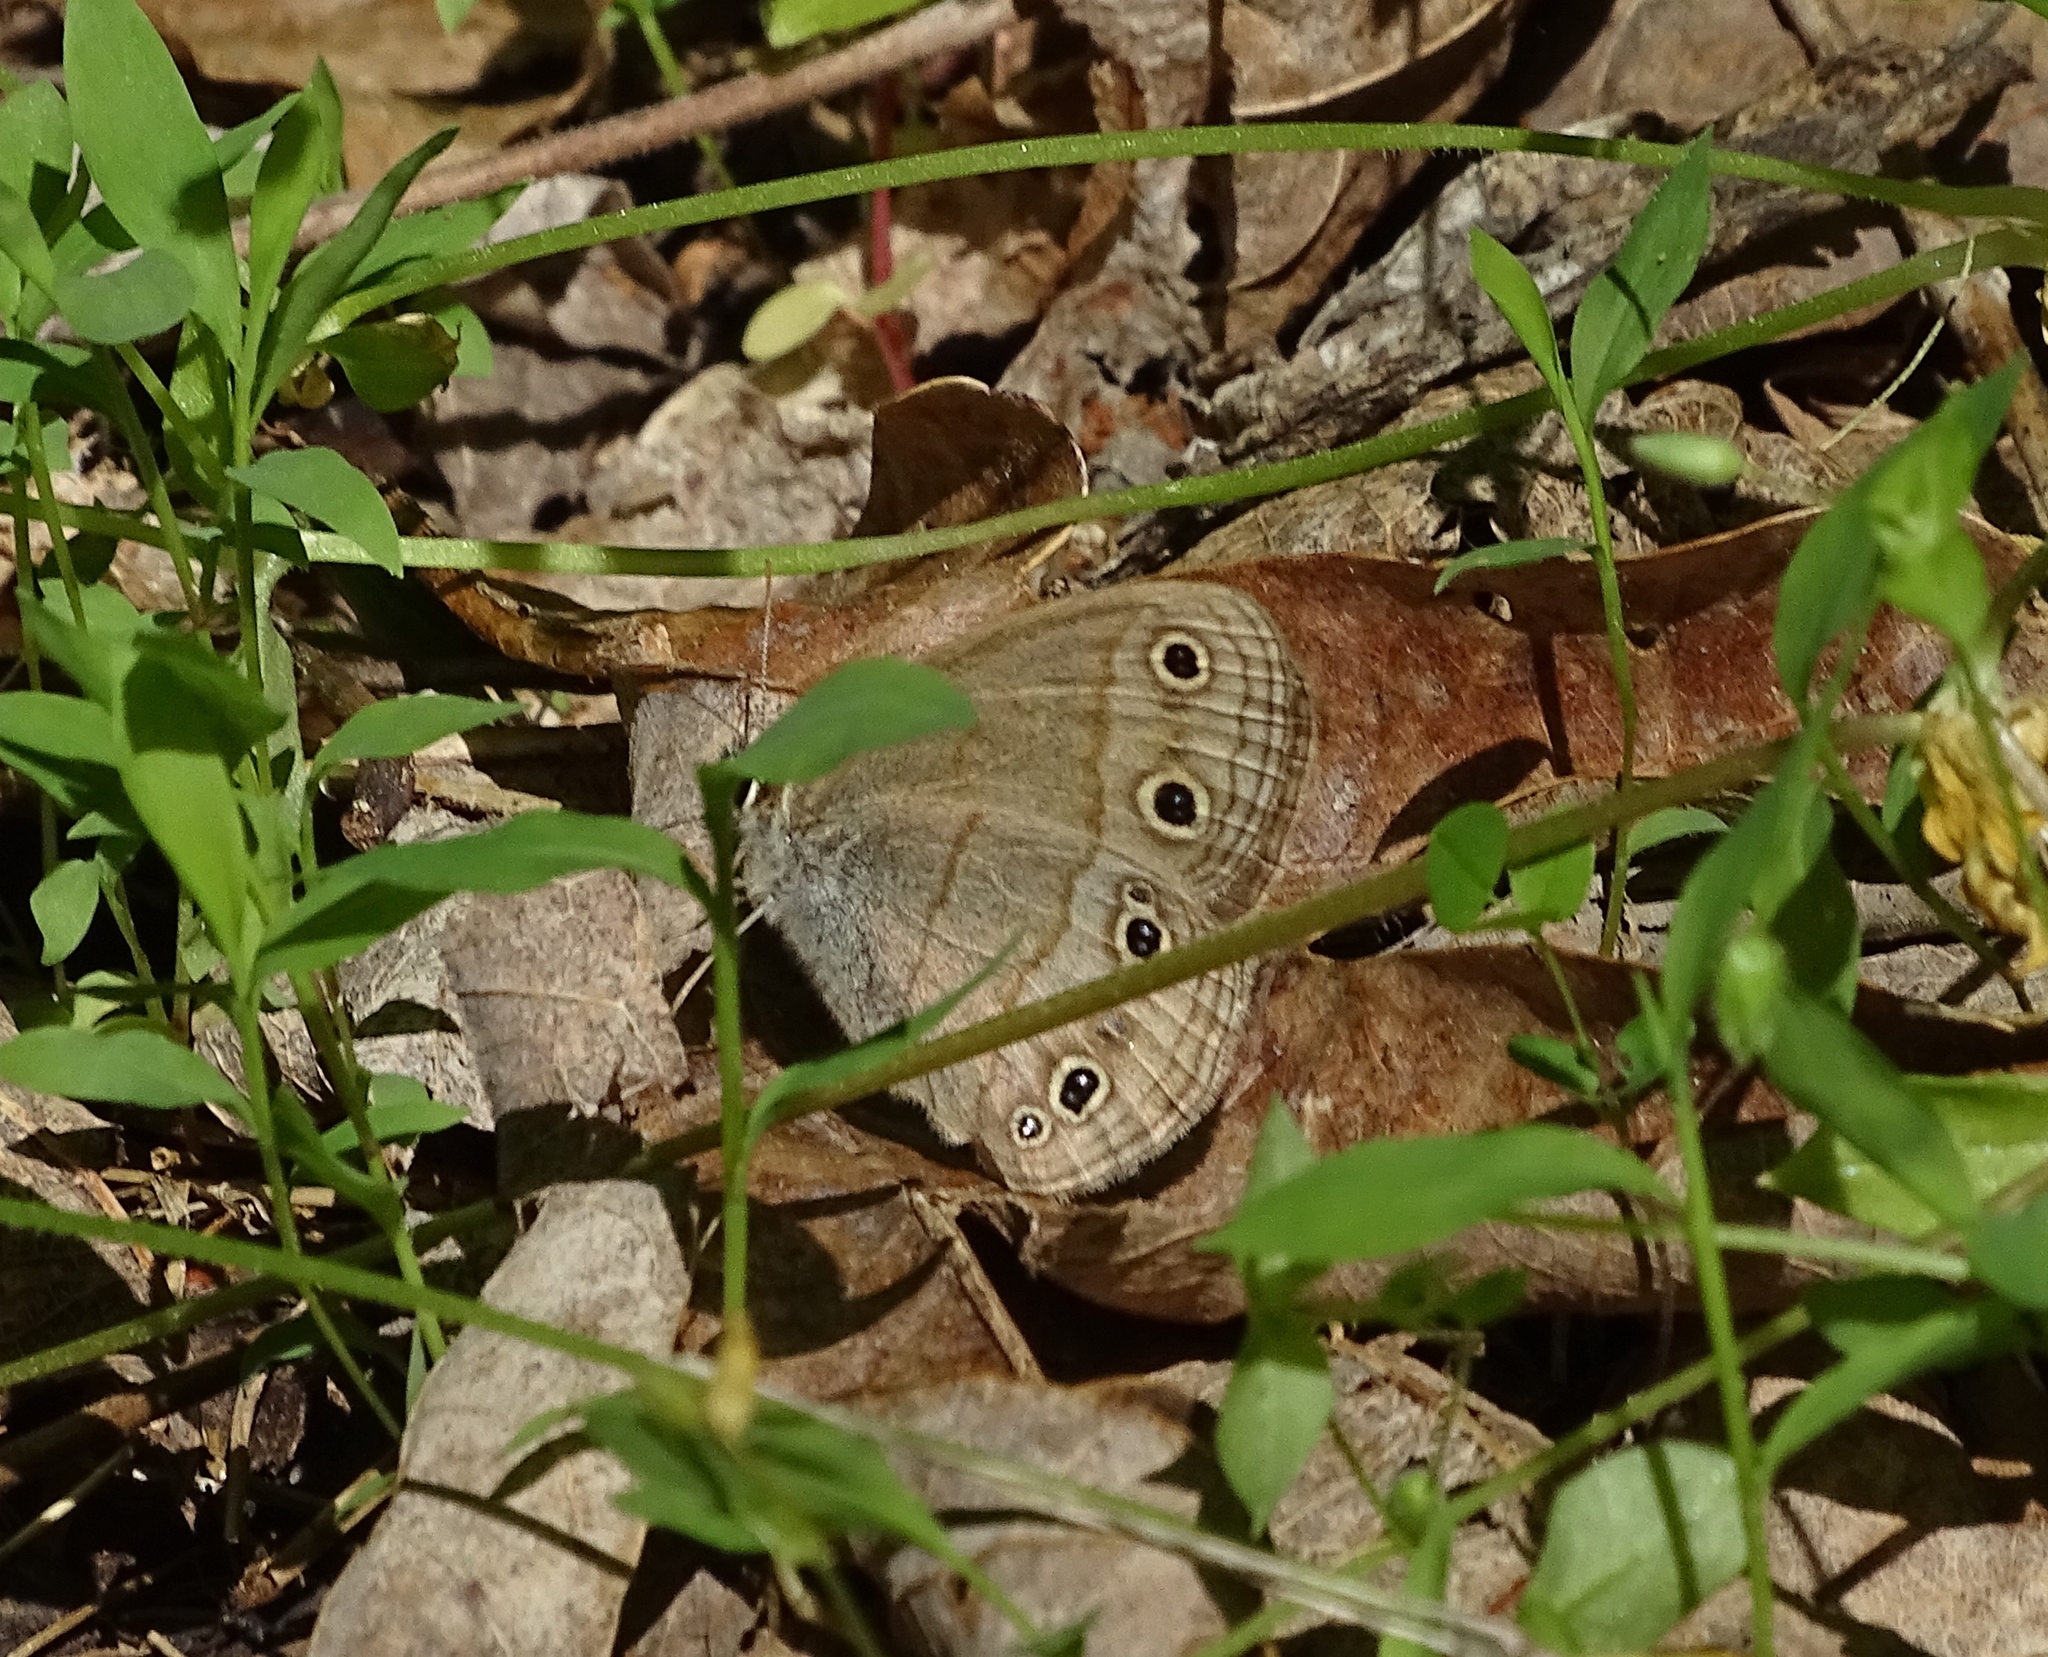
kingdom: Animalia
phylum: Arthropoda
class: Insecta
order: Lepidoptera
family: Nymphalidae
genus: Euptychia
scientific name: Euptychia cymela
